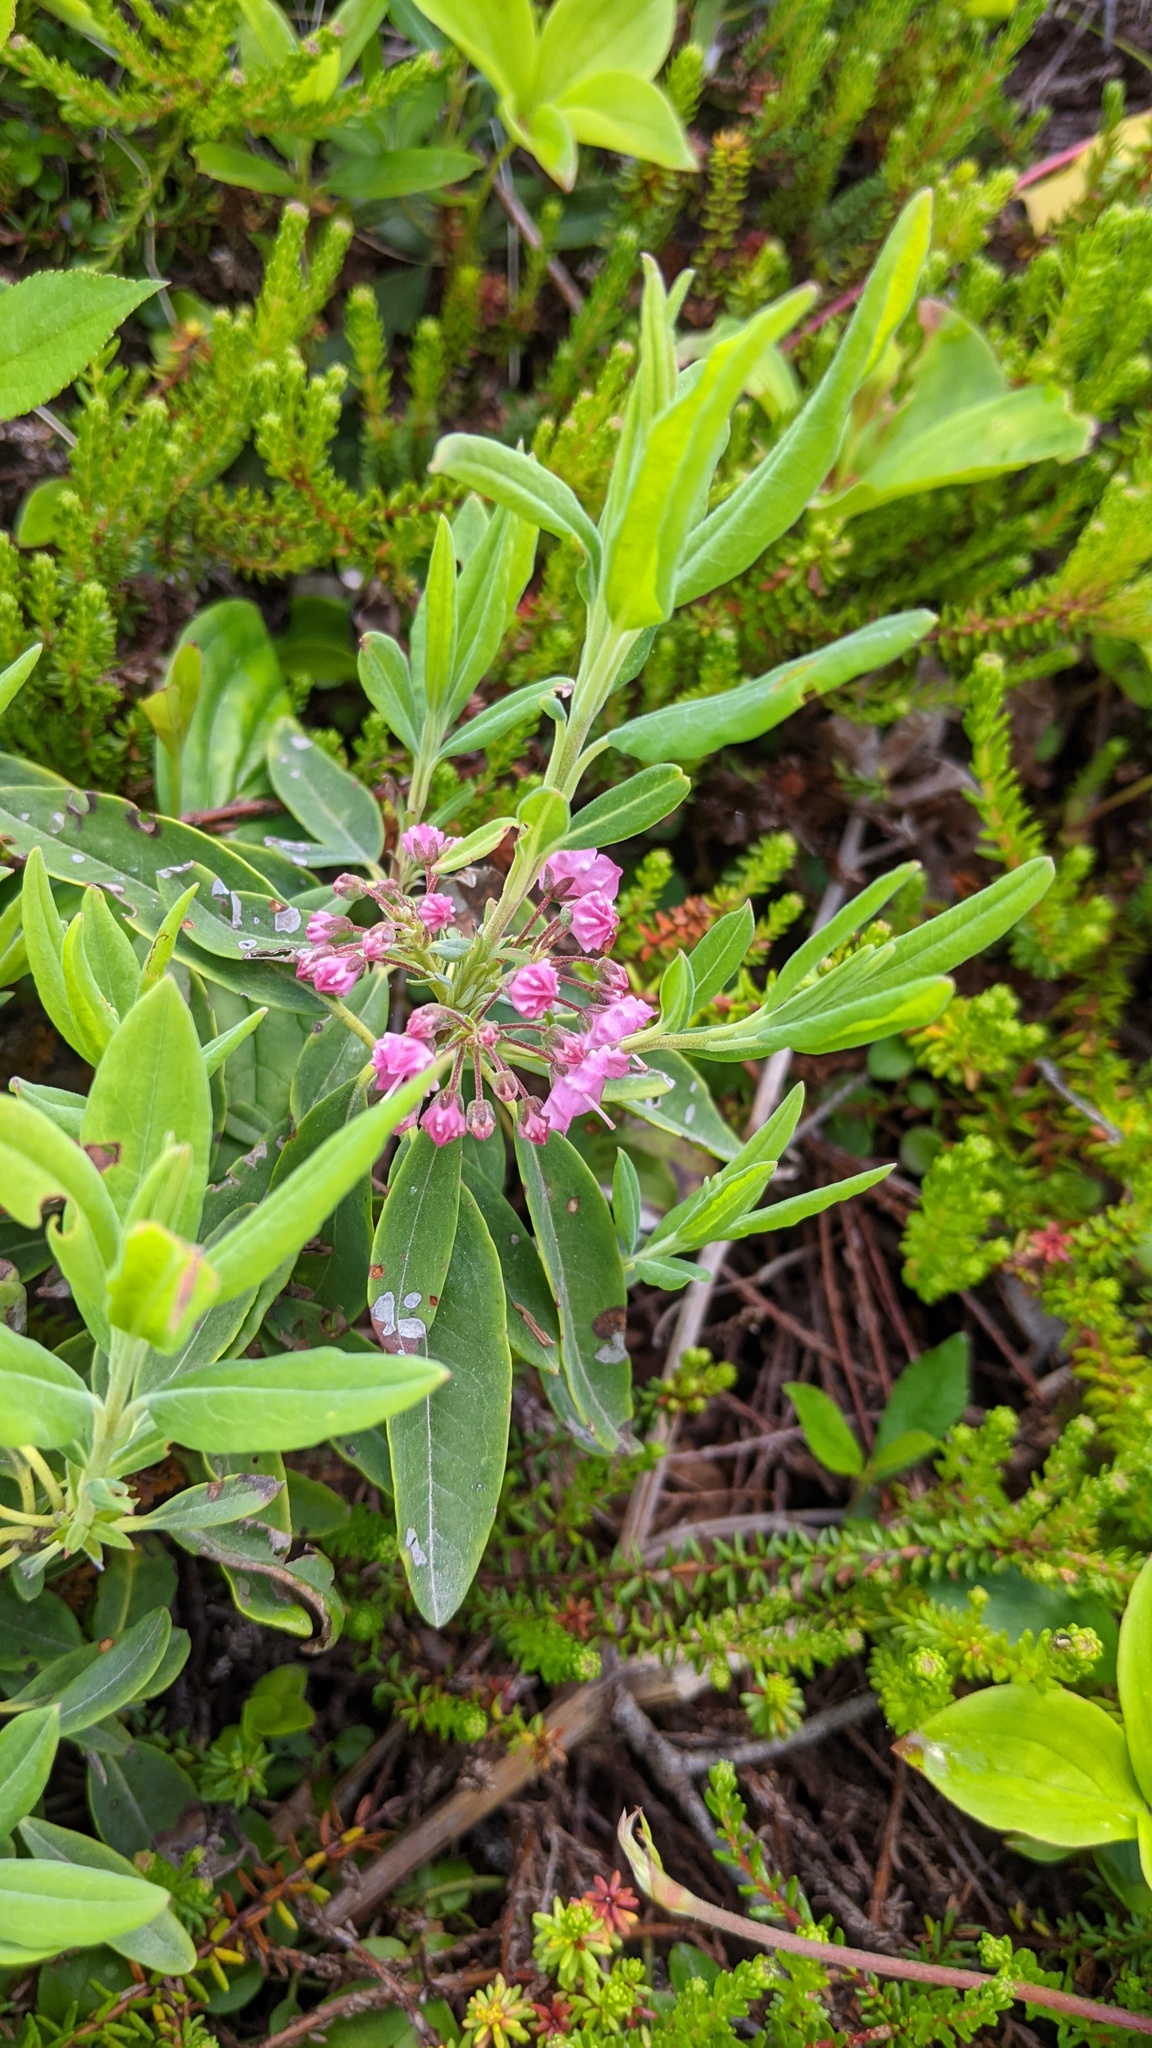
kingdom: Plantae
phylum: Tracheophyta
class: Magnoliopsida
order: Ericales
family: Ericaceae
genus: Kalmia
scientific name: Kalmia angustifolia
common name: Sheep-laurel
